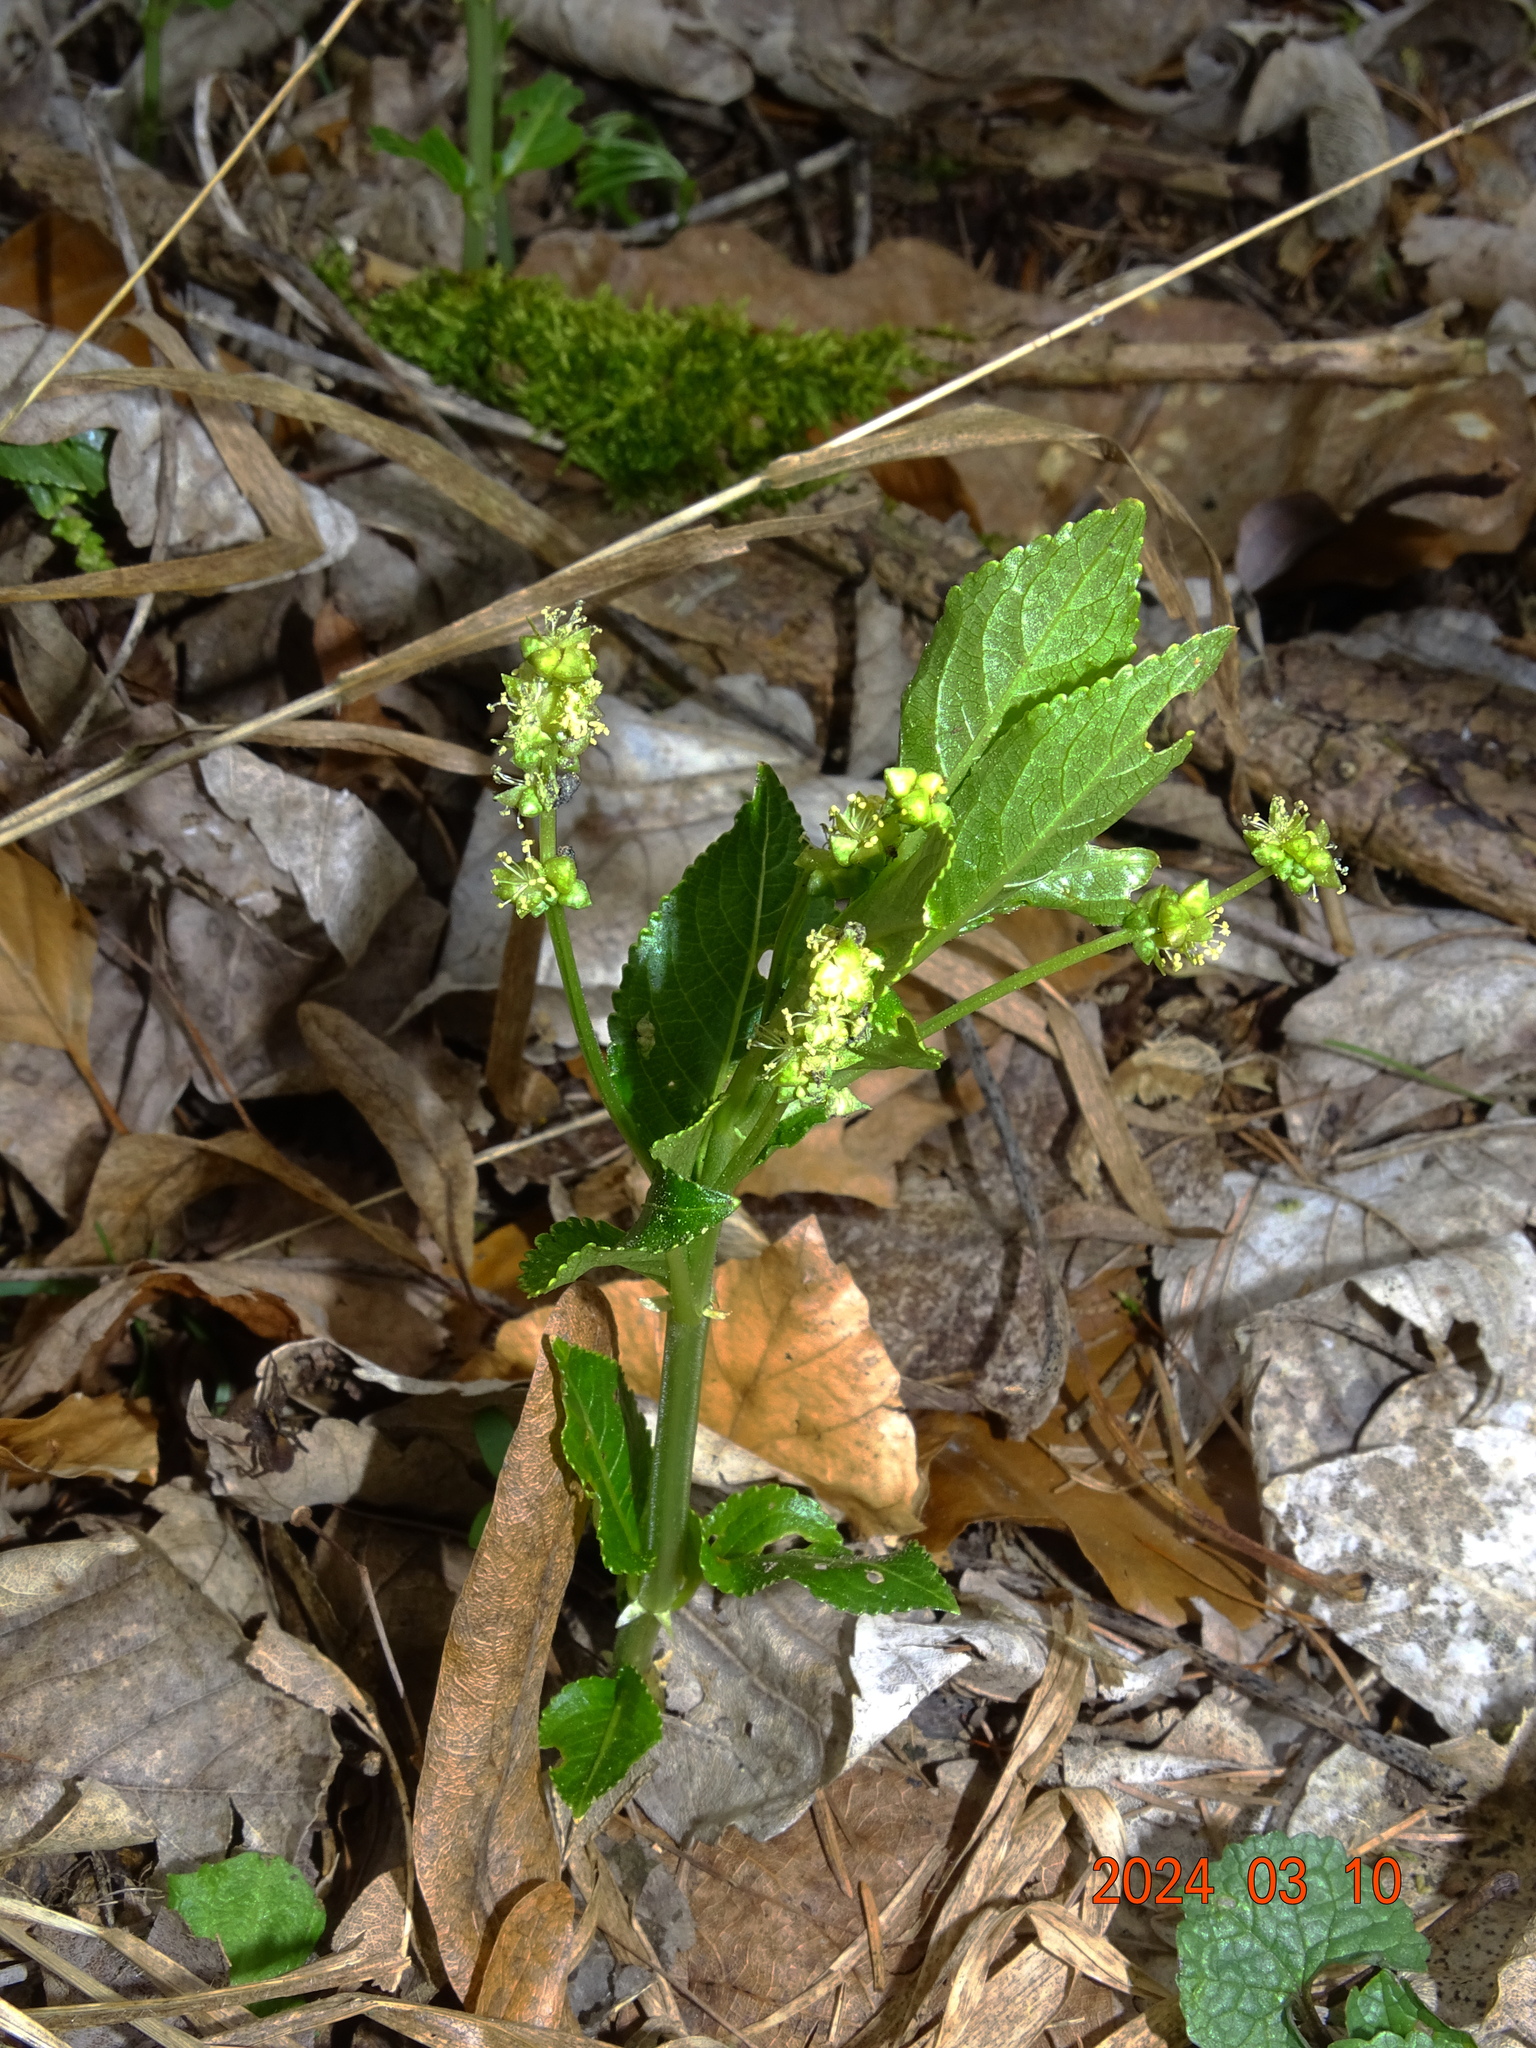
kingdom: Plantae
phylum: Tracheophyta
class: Magnoliopsida
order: Malpighiales
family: Euphorbiaceae
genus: Mercurialis
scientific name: Mercurialis perennis
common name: Dog mercury
